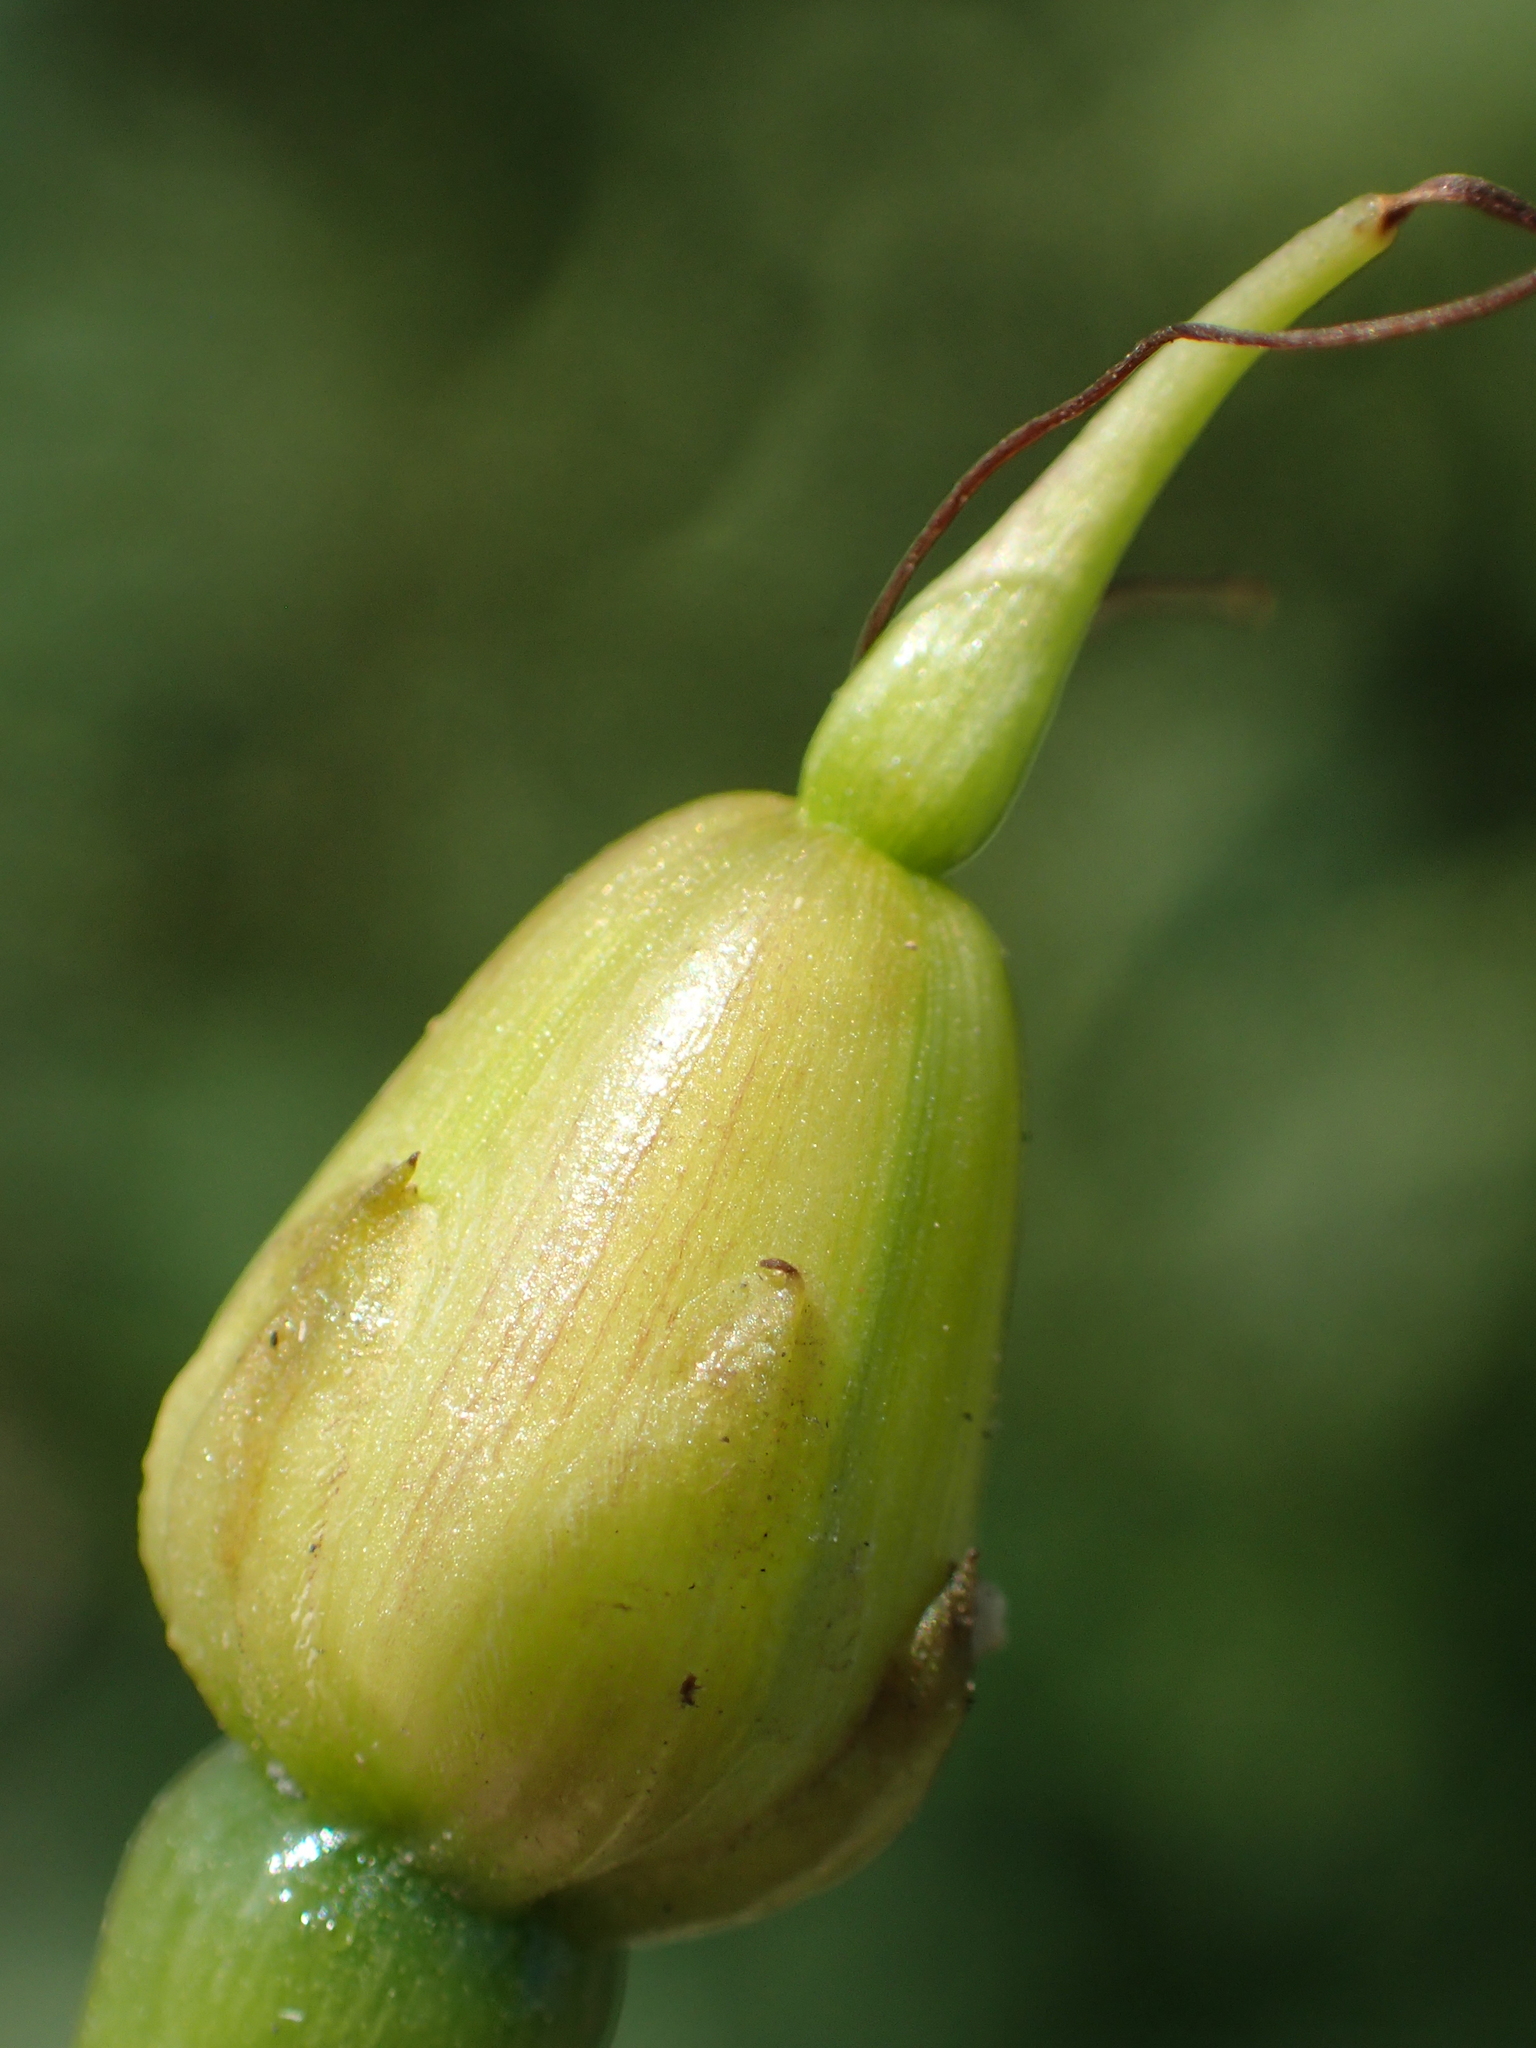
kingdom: Plantae
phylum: Tracheophyta
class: Magnoliopsida
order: Solanales
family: Convolvulaceae
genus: Ipomoea
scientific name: Ipomoea quamoclit
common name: Cypress vine
